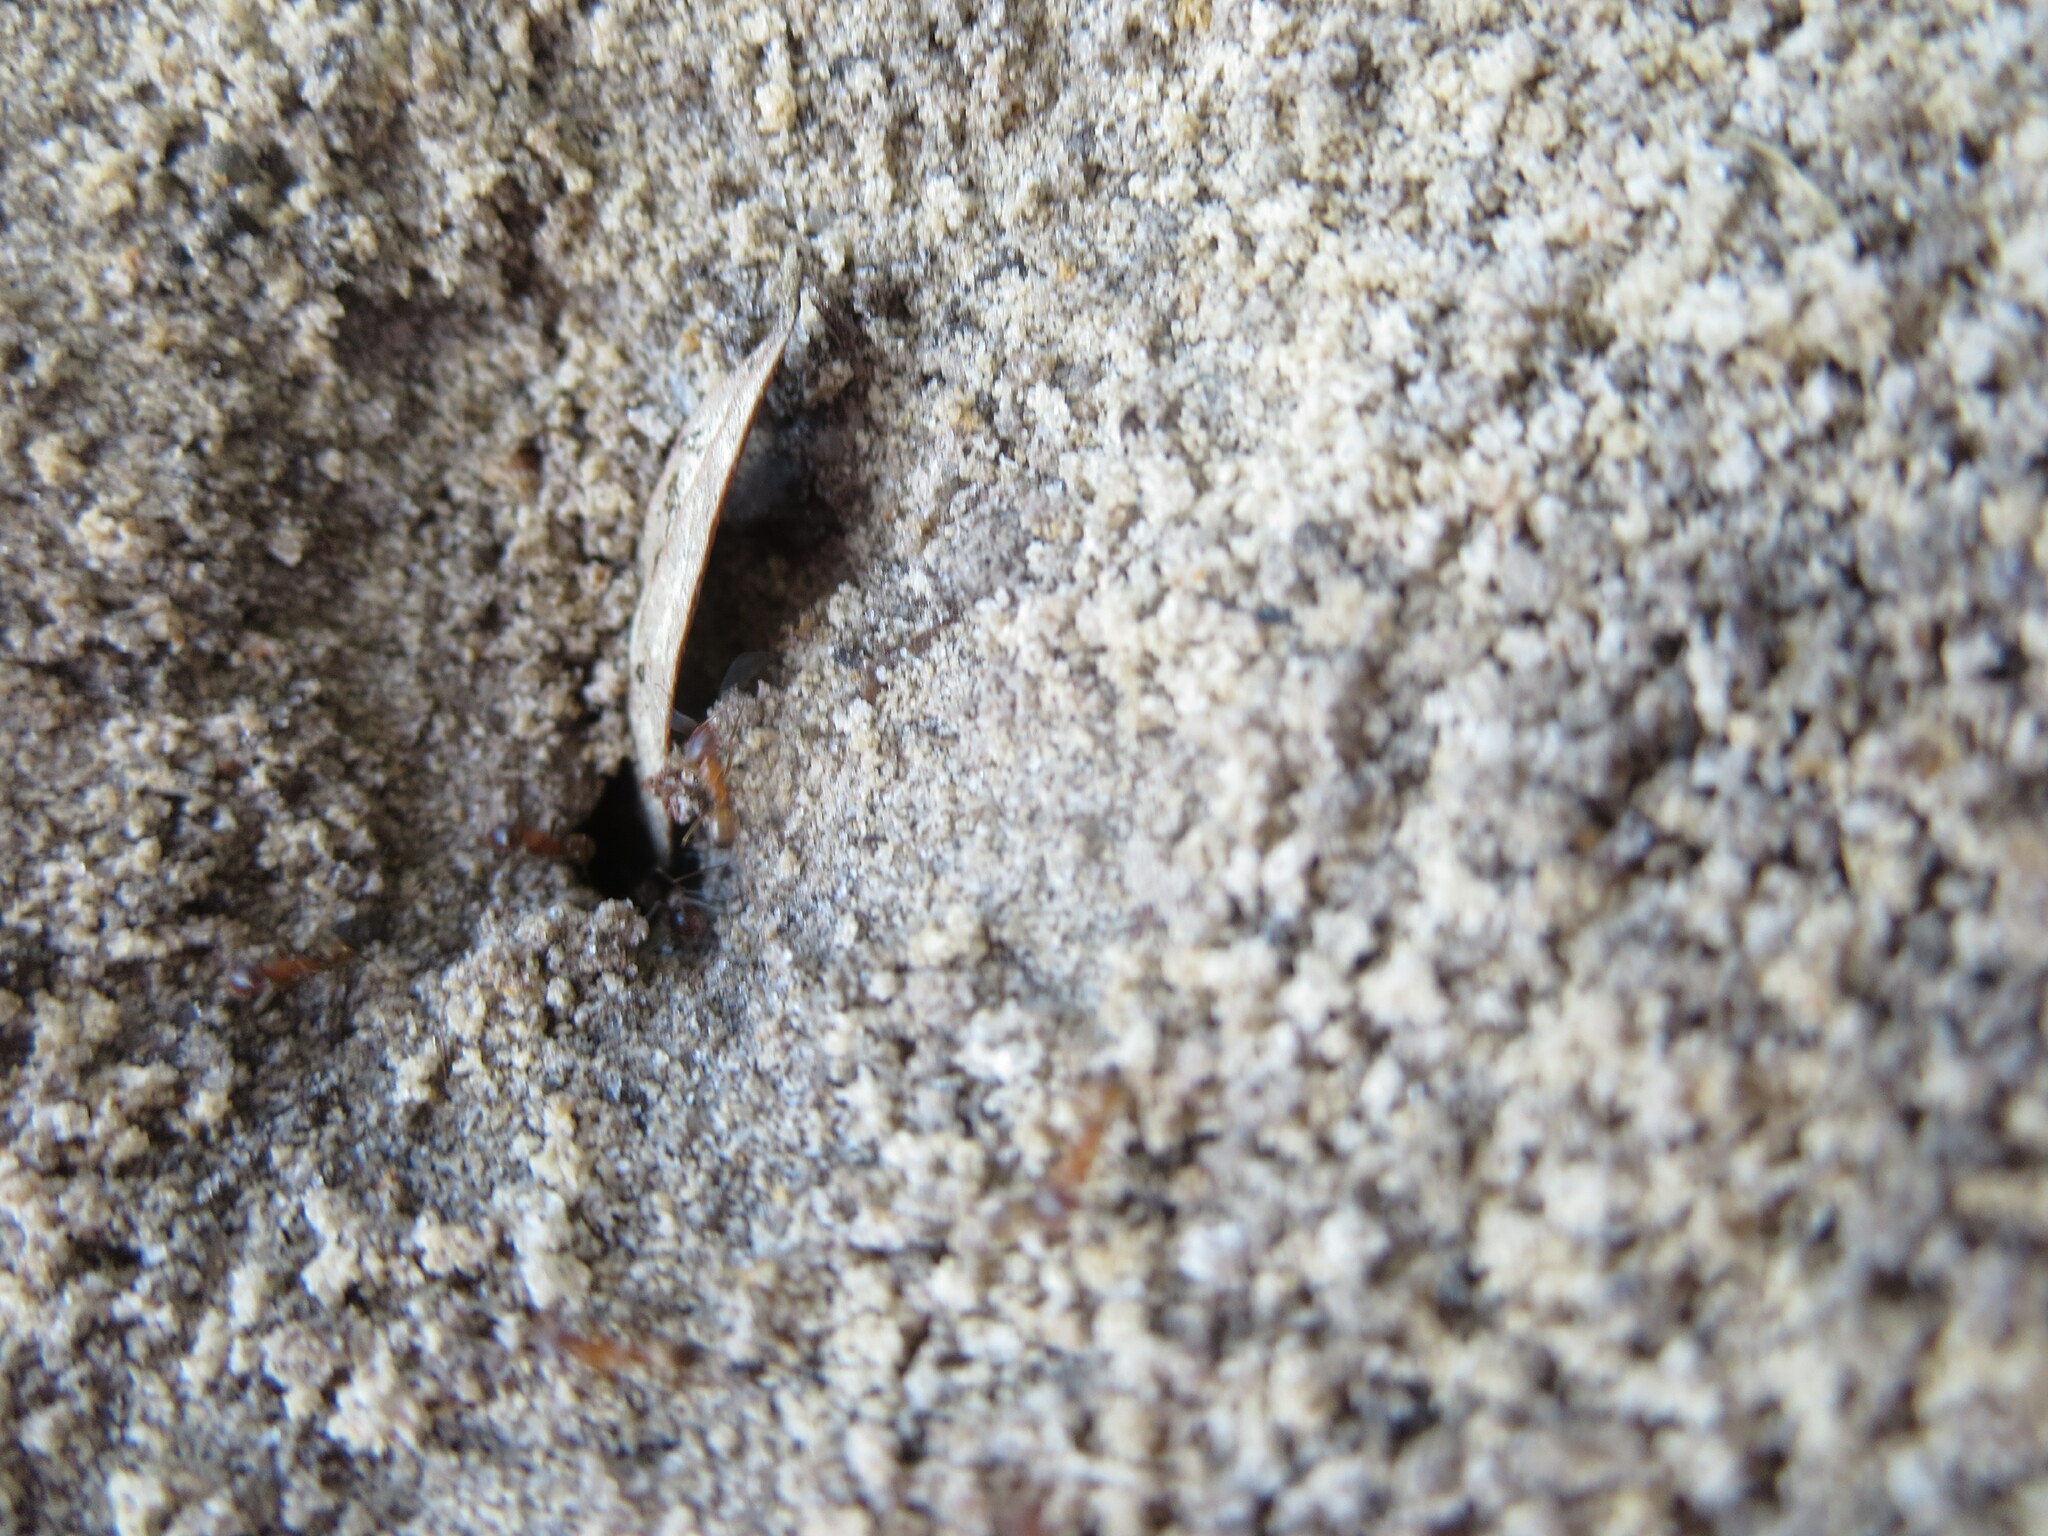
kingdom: Animalia
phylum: Arthropoda
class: Insecta
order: Hymenoptera
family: Formicidae
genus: Dorymyrmex
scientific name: Dorymyrmex bureni
